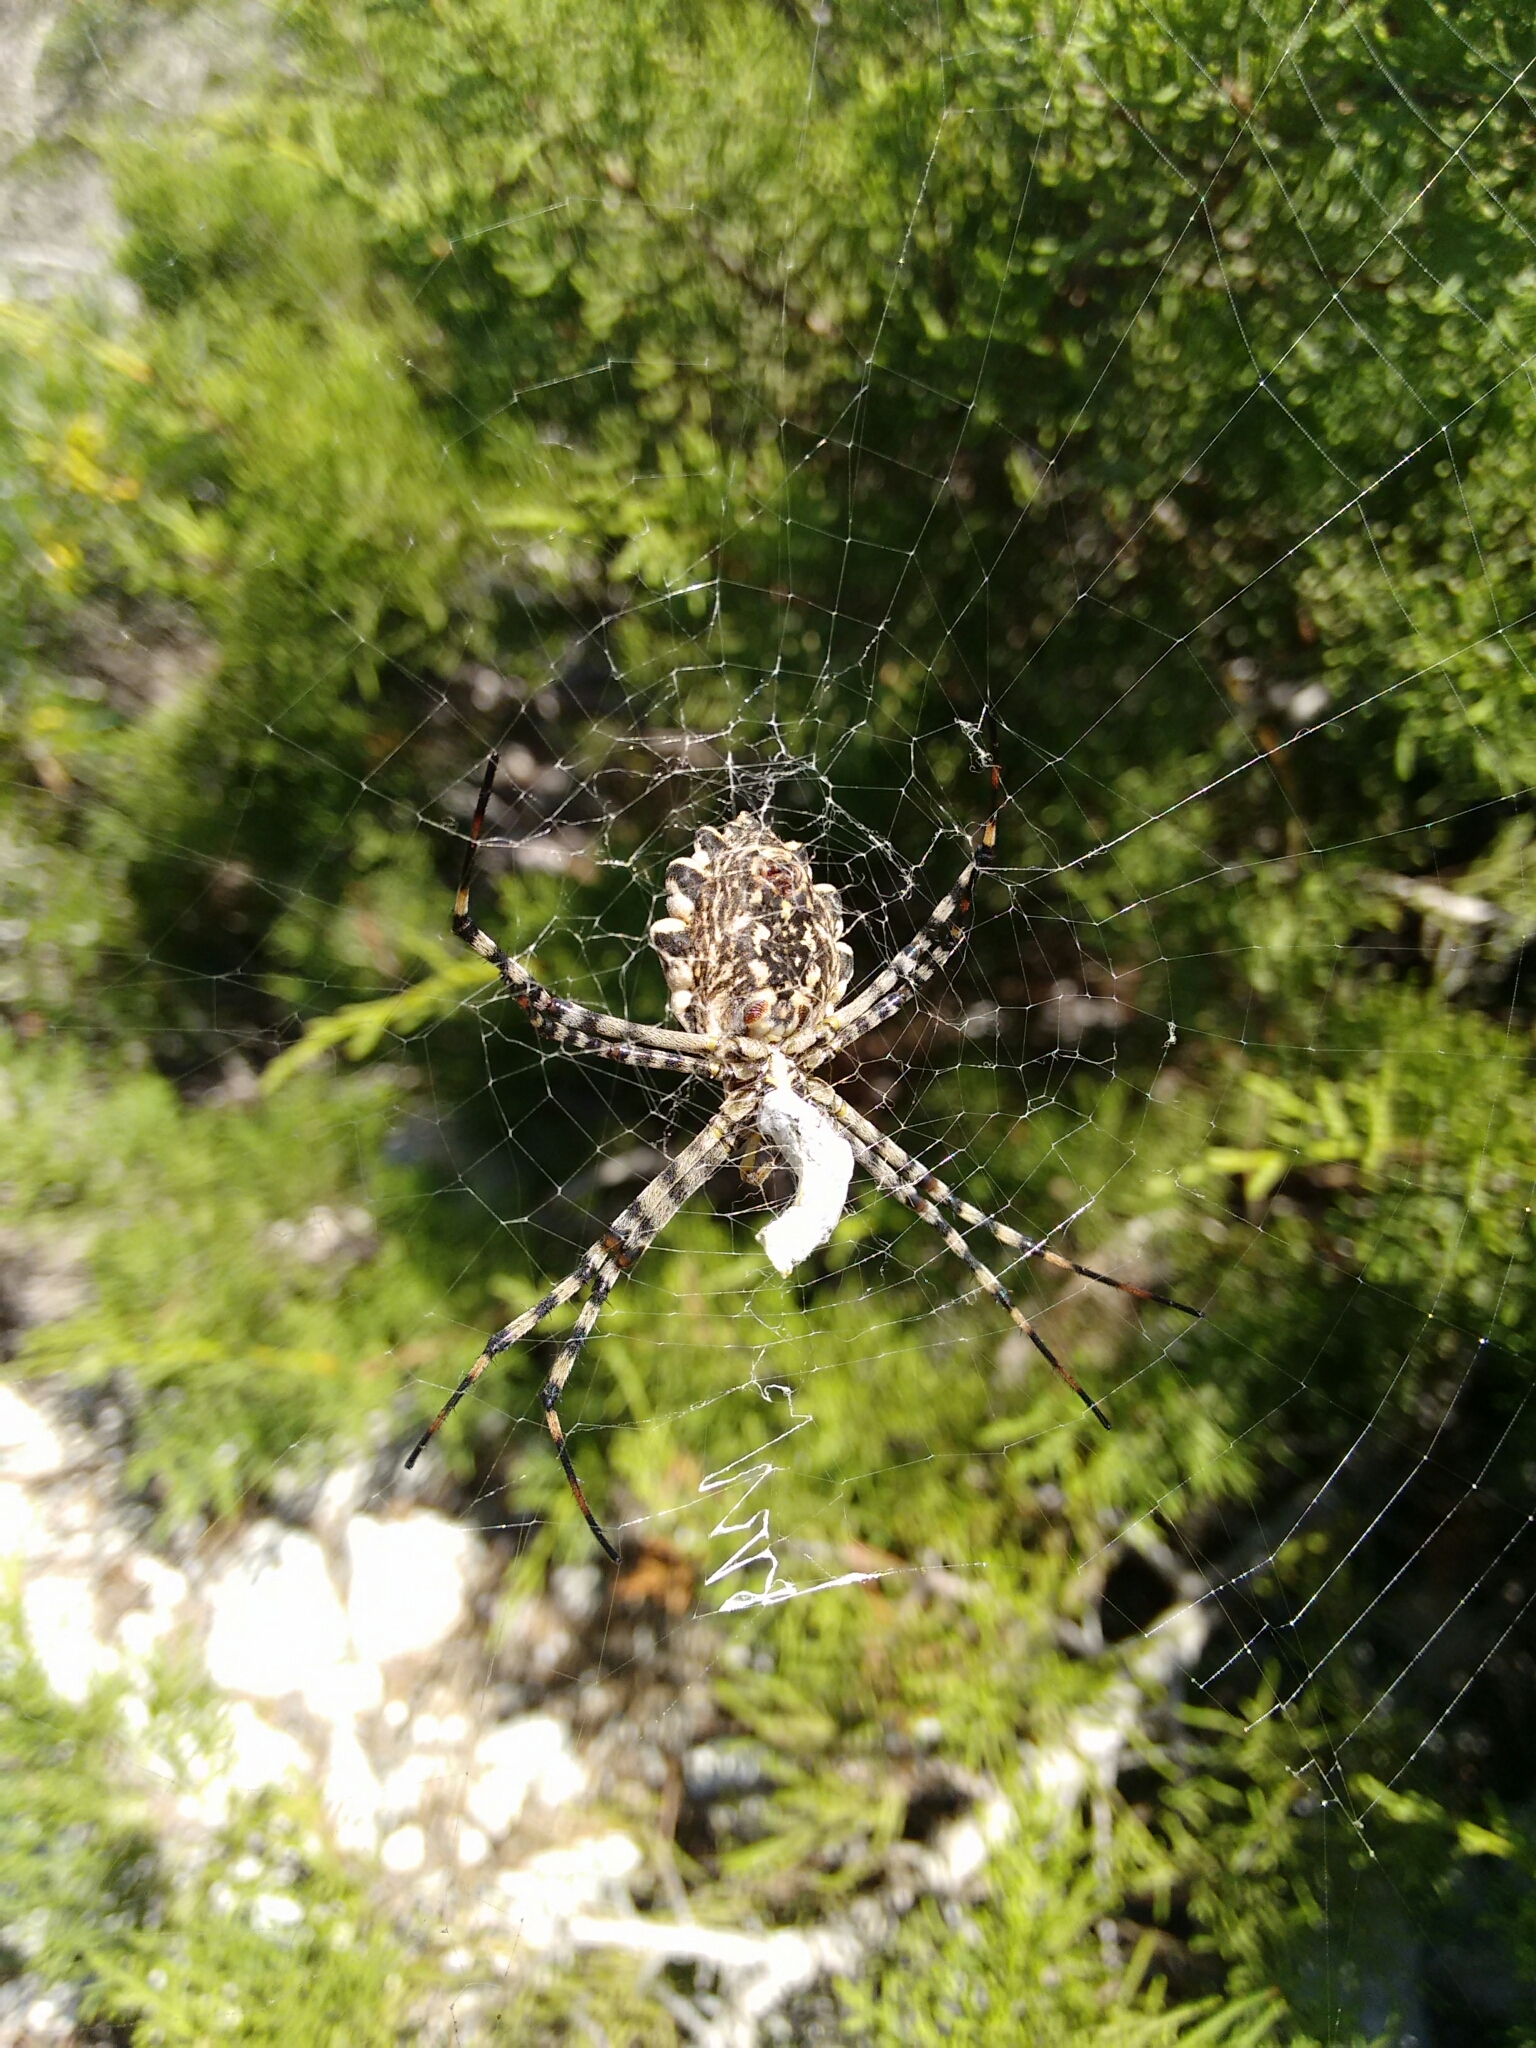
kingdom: Animalia
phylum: Arthropoda
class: Arachnida
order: Araneae
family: Araneidae
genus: Argiope
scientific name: Argiope lobata
